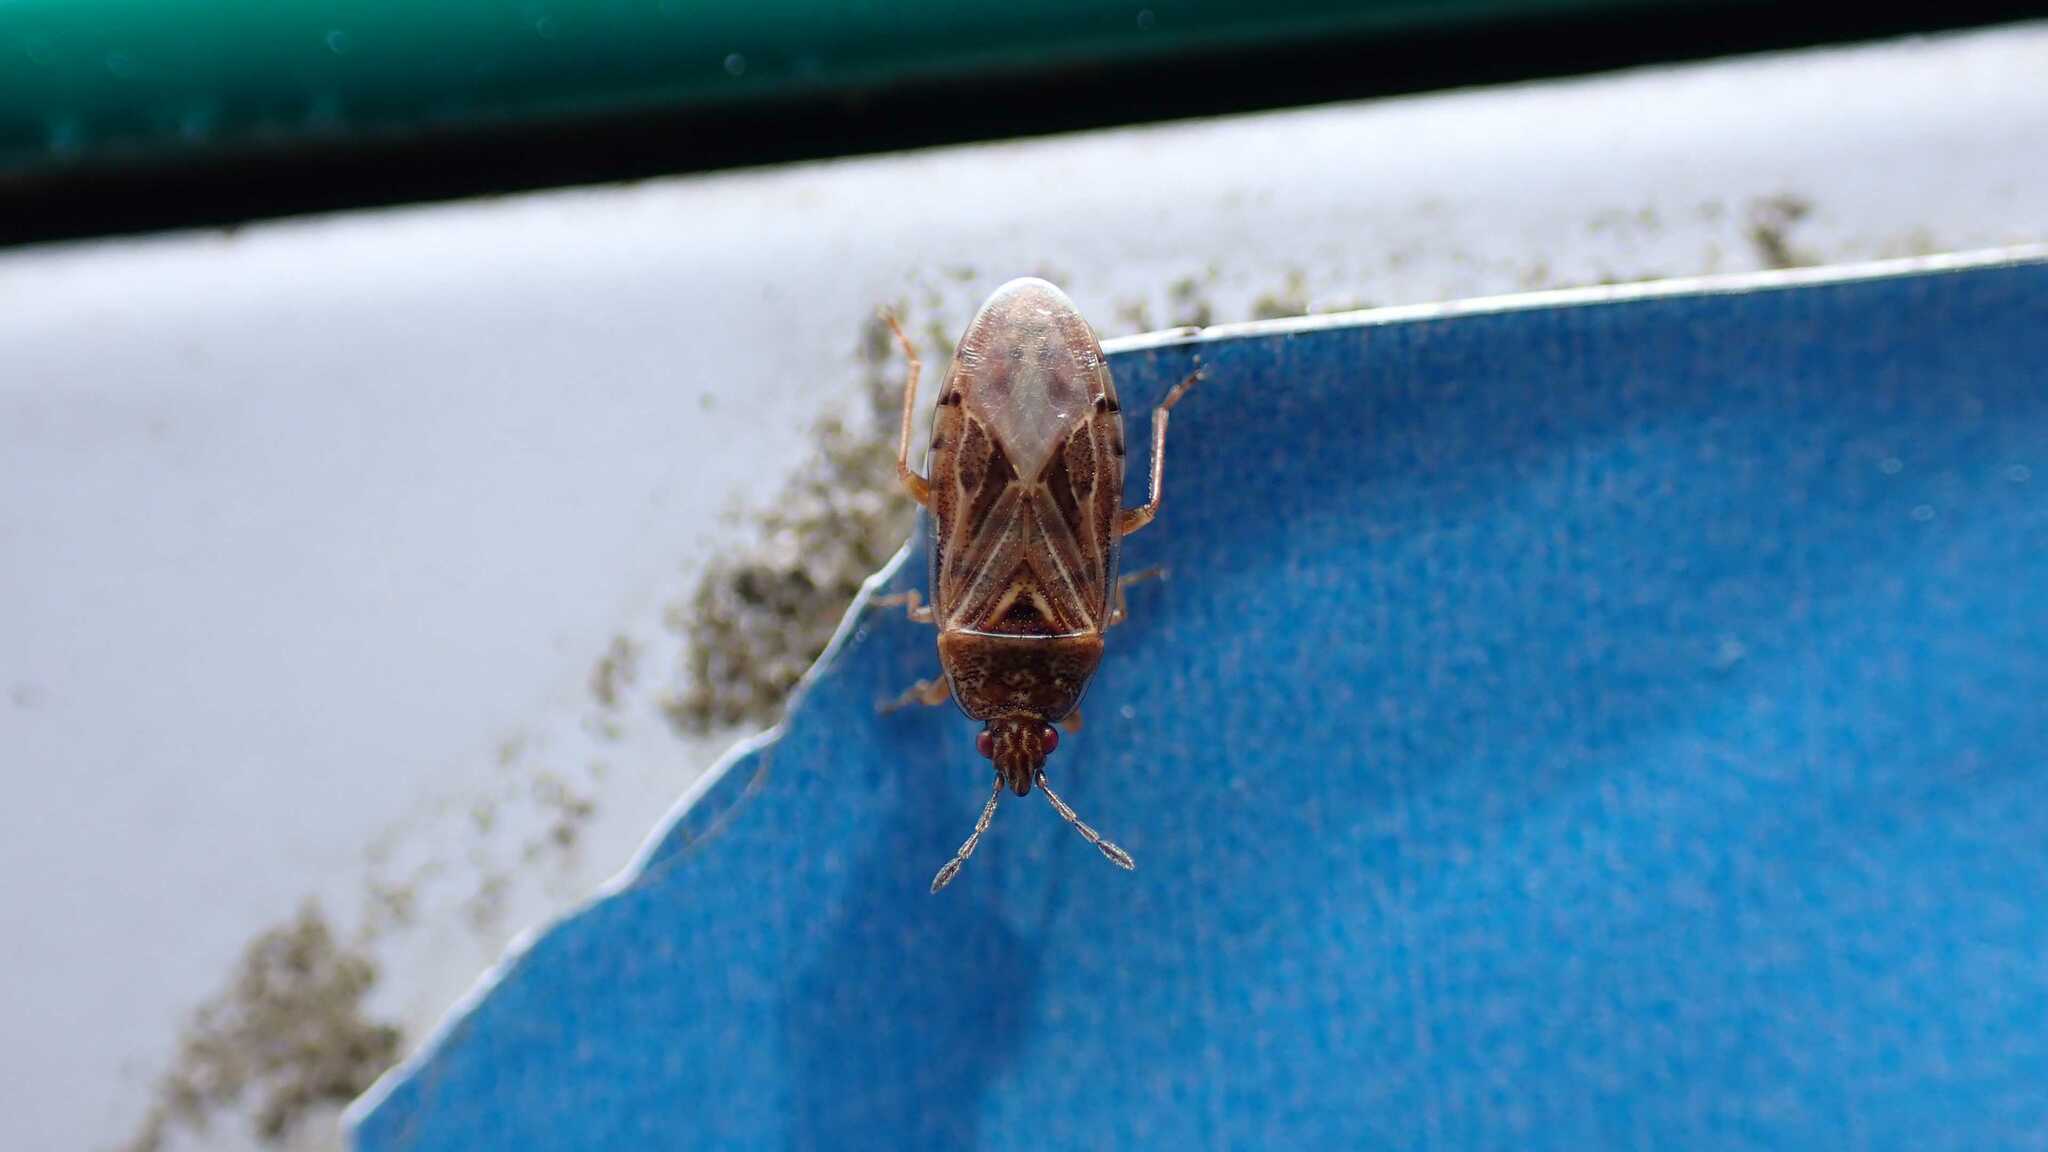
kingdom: Animalia
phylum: Arthropoda
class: Insecta
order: Hemiptera
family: Artheneidae
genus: Chilacis
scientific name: Chilacis typhae
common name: Cattail bug
